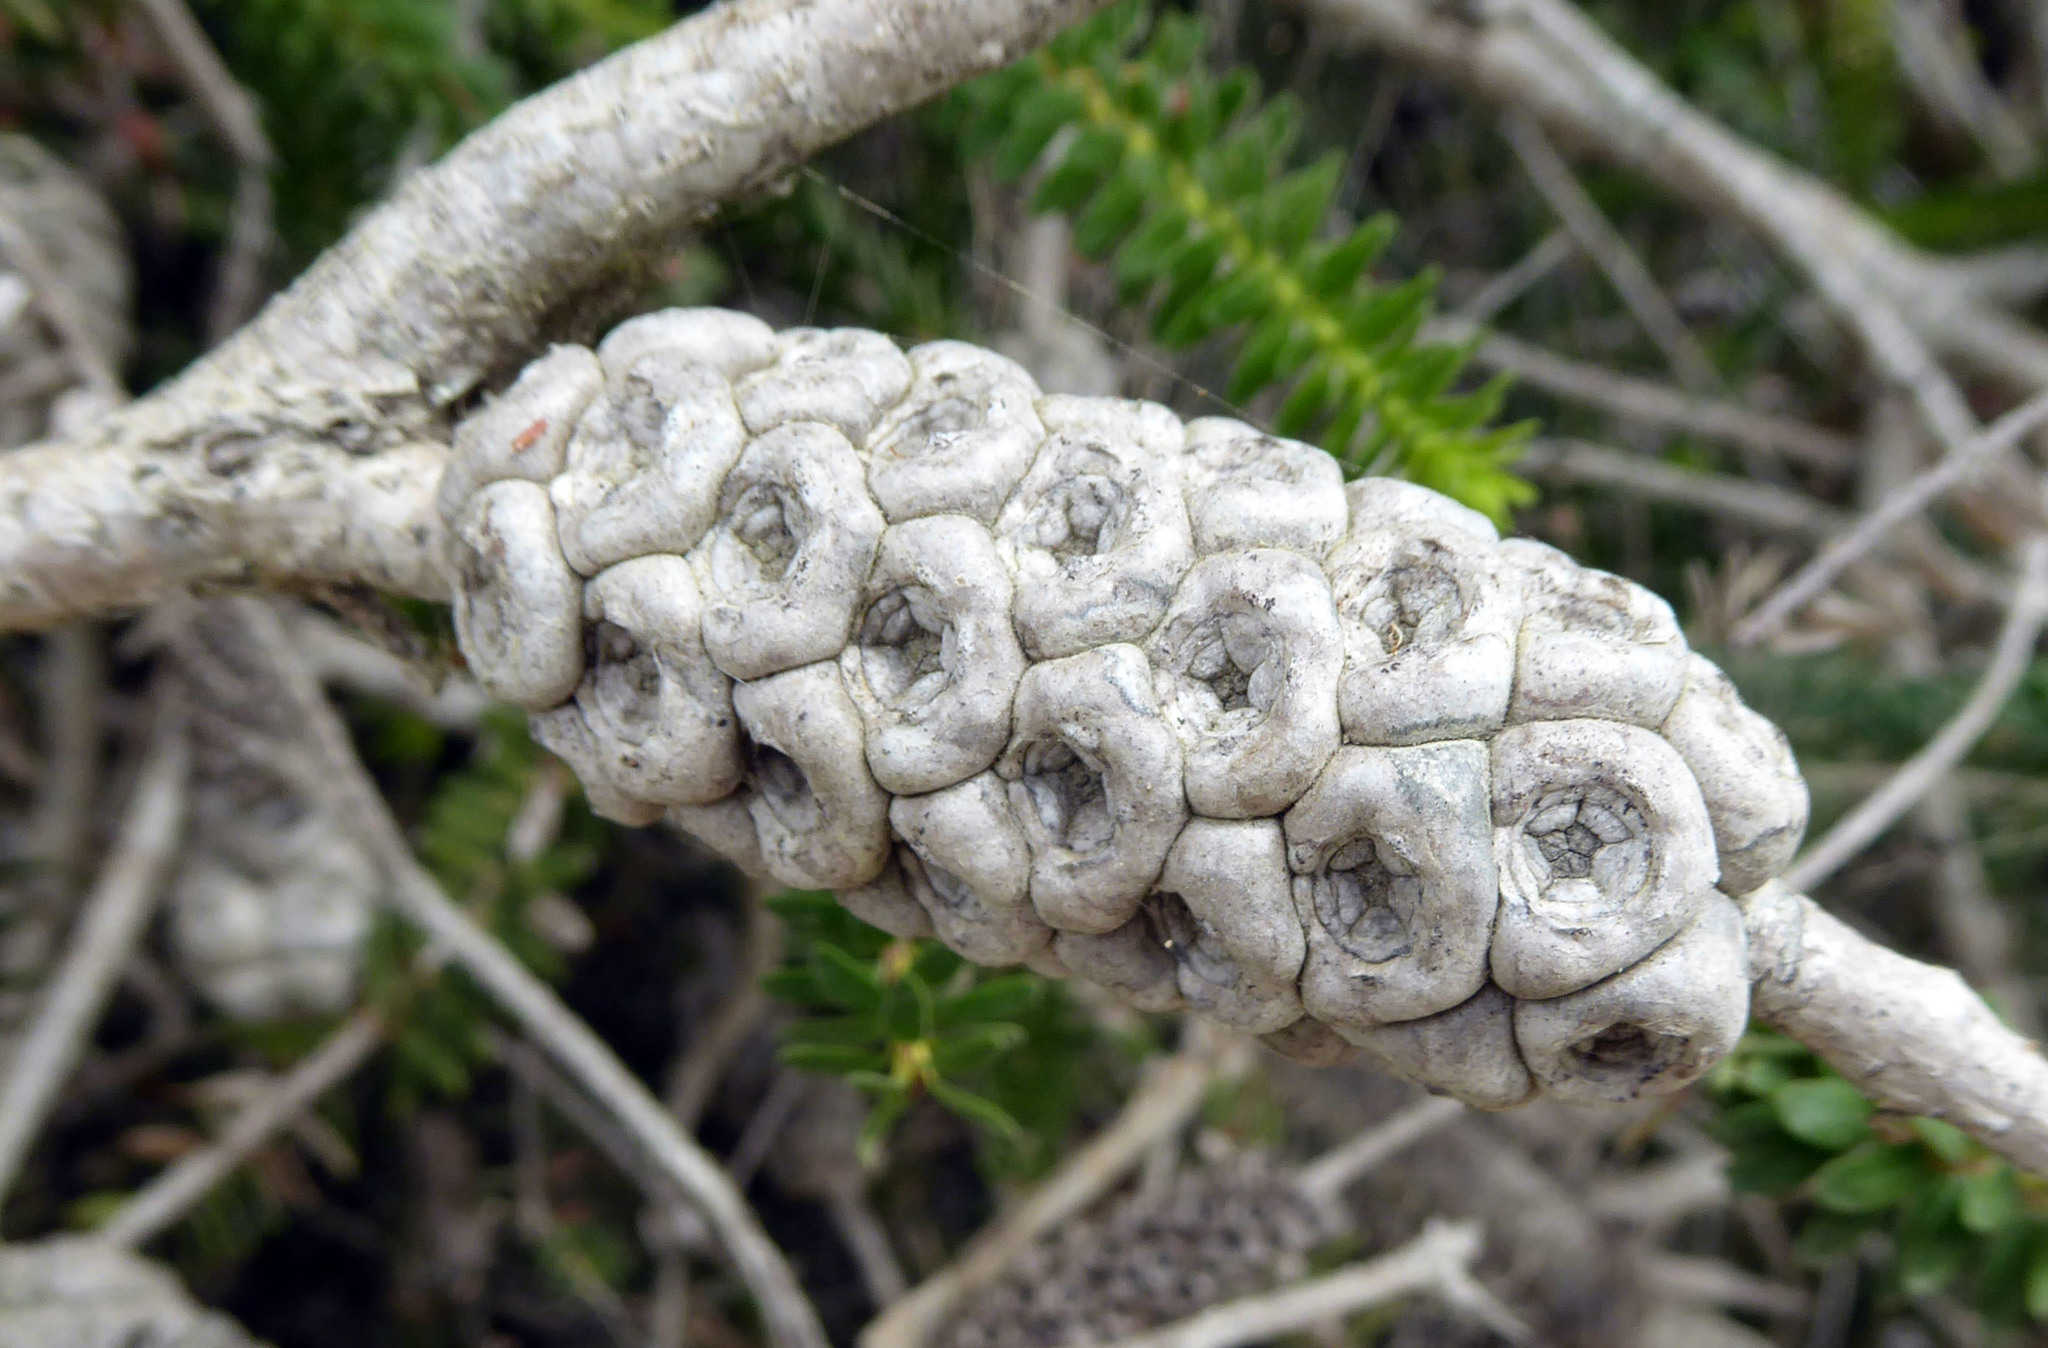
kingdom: Plantae
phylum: Tracheophyta
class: Magnoliopsida
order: Myrtales
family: Myrtaceae
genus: Melaleuca
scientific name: Melaleuca diosmifolia
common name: Green honey myrtle
